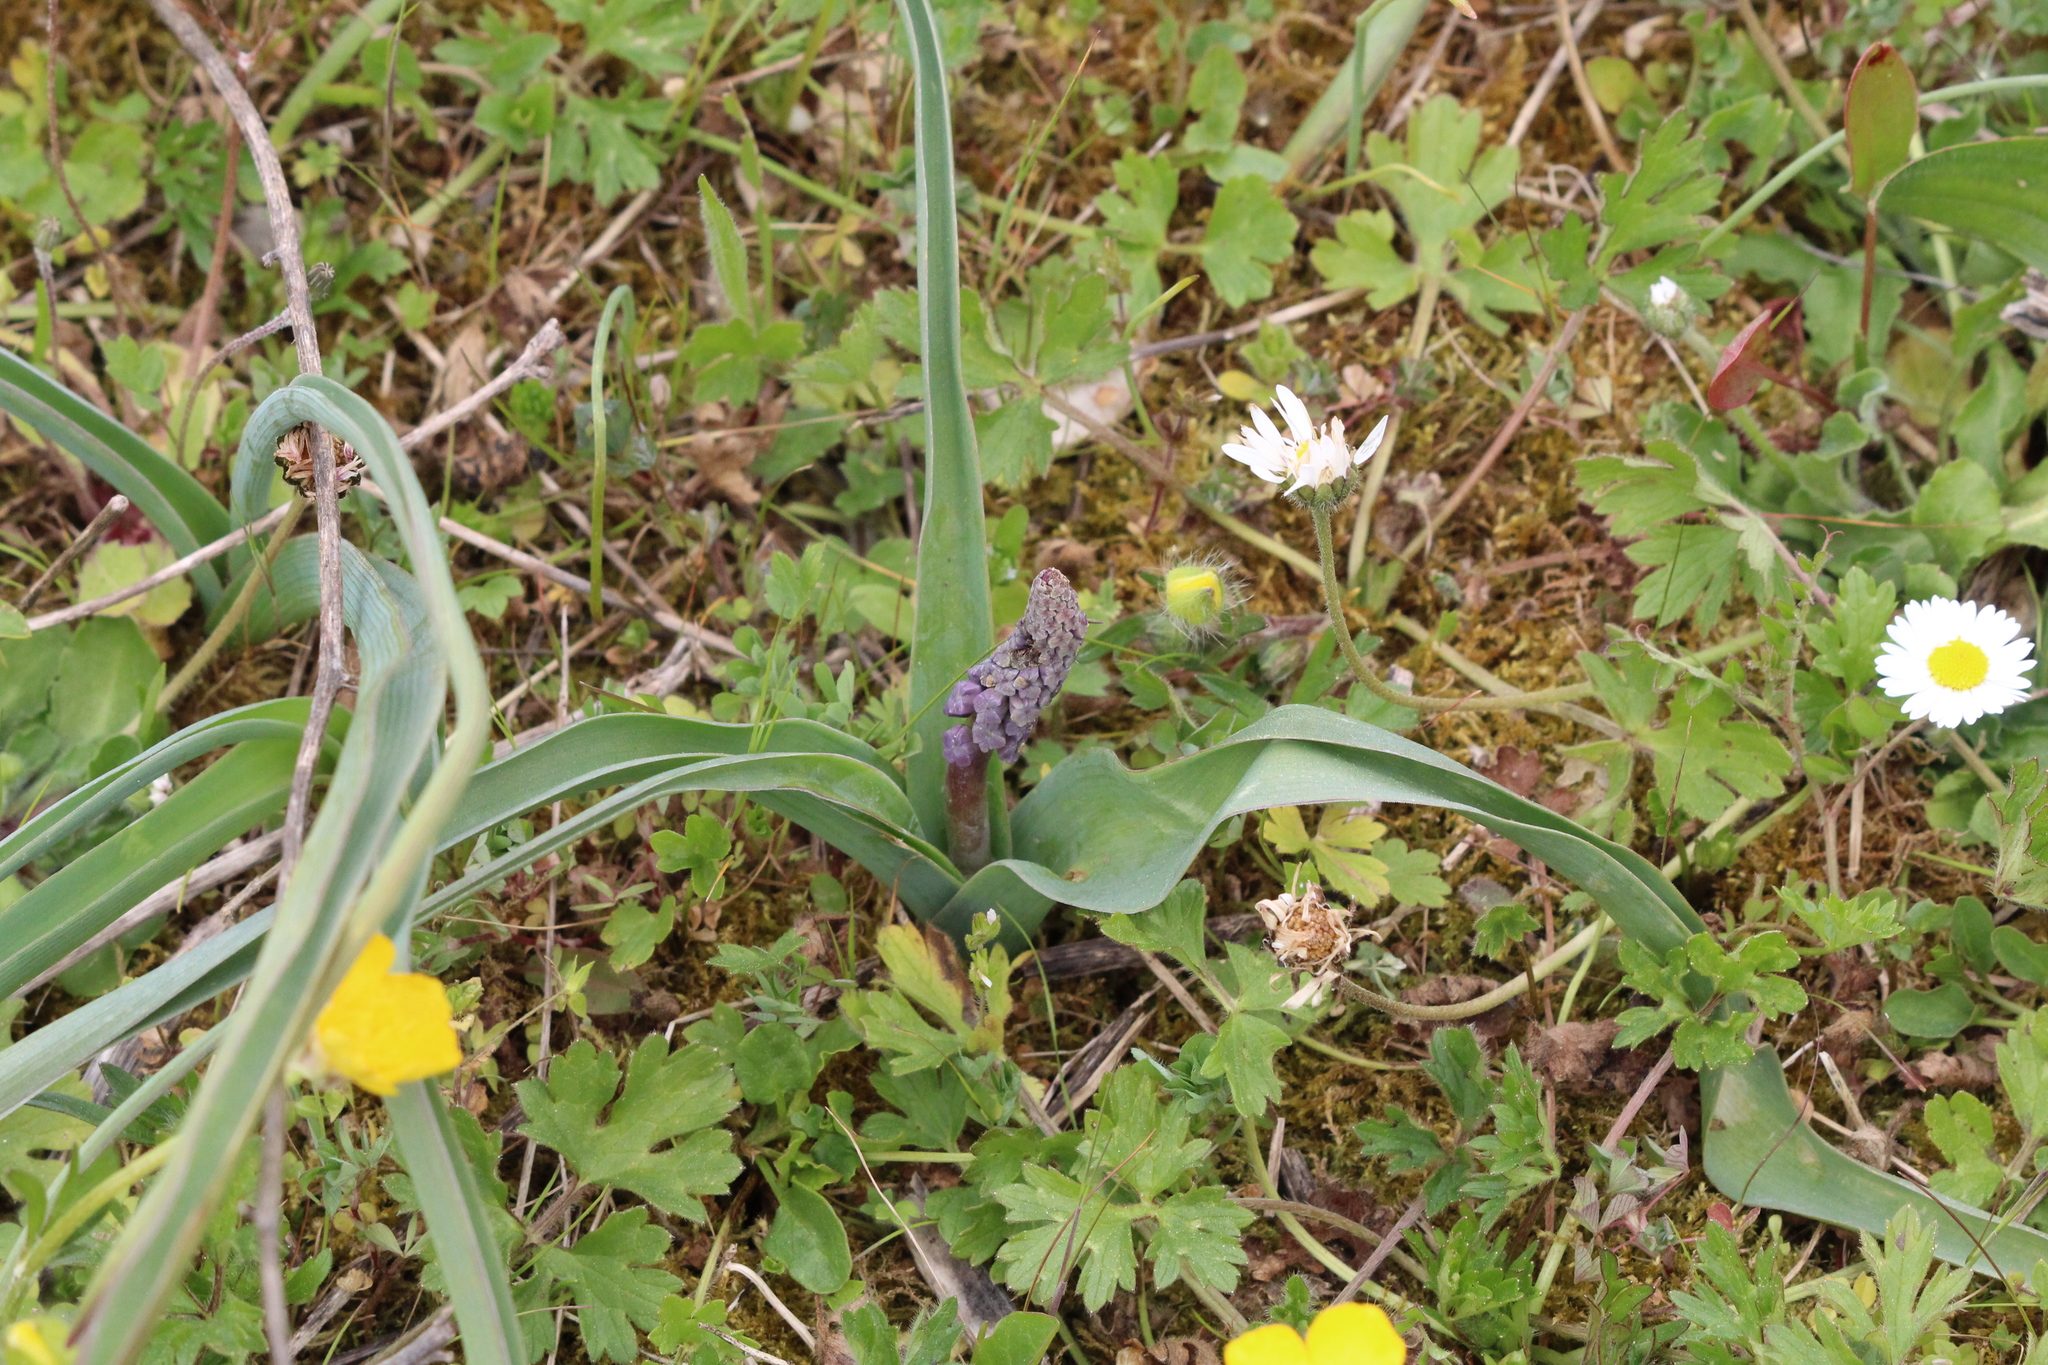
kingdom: Plantae
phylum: Tracheophyta
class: Liliopsida
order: Asparagales
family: Asparagaceae
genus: Muscari
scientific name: Muscari comosum
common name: Tassel hyacinth
